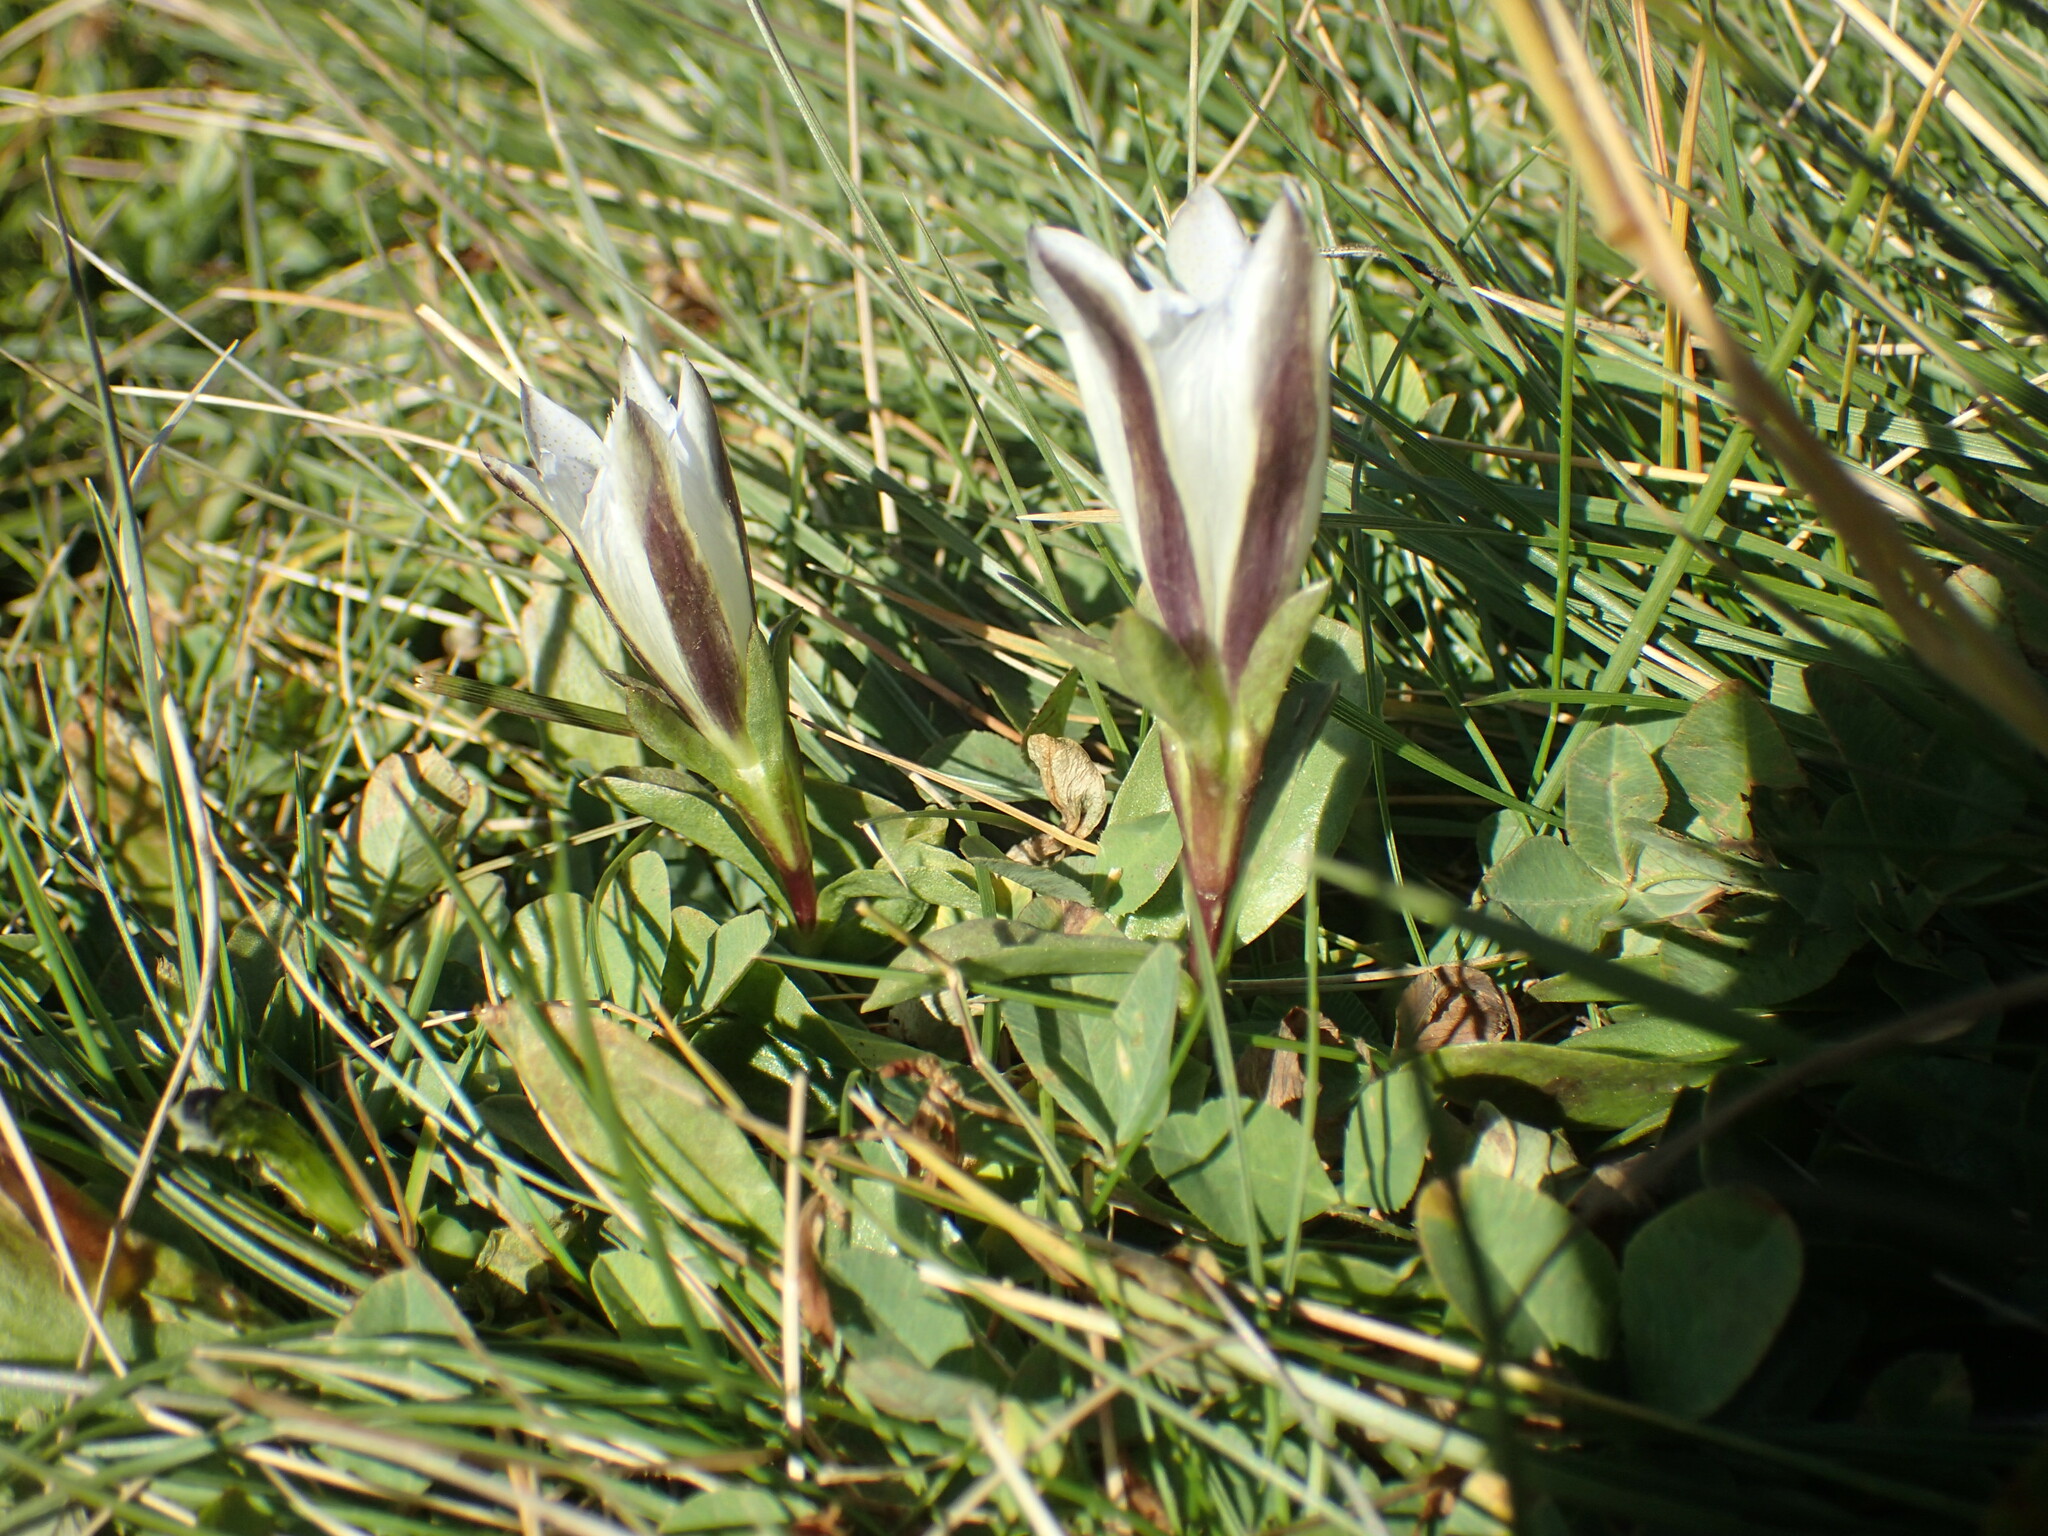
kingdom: Plantae
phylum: Tracheophyta
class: Magnoliopsida
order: Gentianales
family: Gentianaceae
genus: Gentiana
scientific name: Gentiana newberryi
